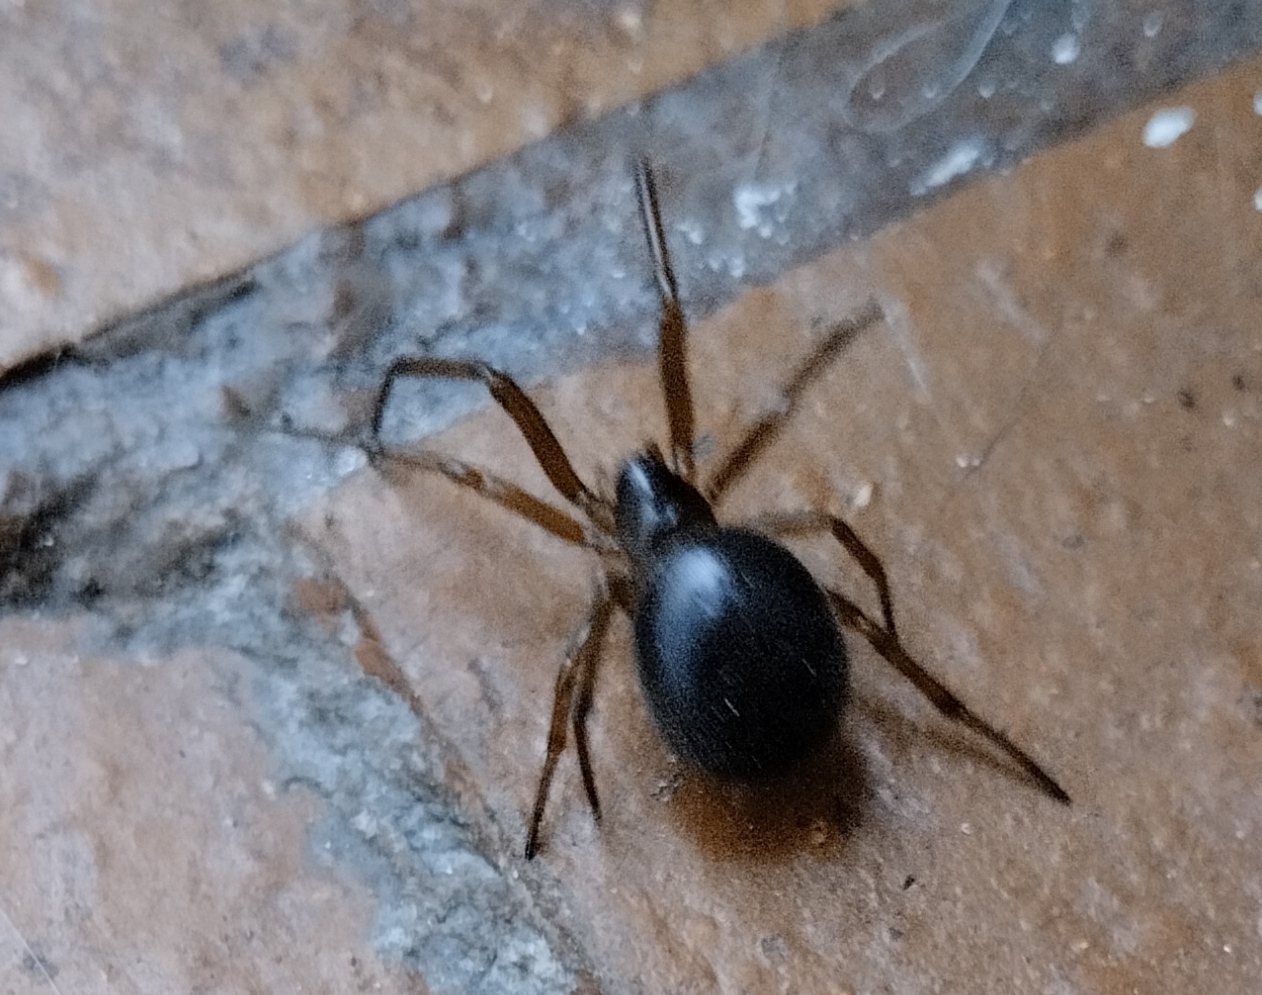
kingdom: Animalia
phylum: Arthropoda
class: Arachnida
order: Araneae
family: Theridiidae
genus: Steatoda
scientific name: Steatoda nobilis
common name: Cobweb weaver
